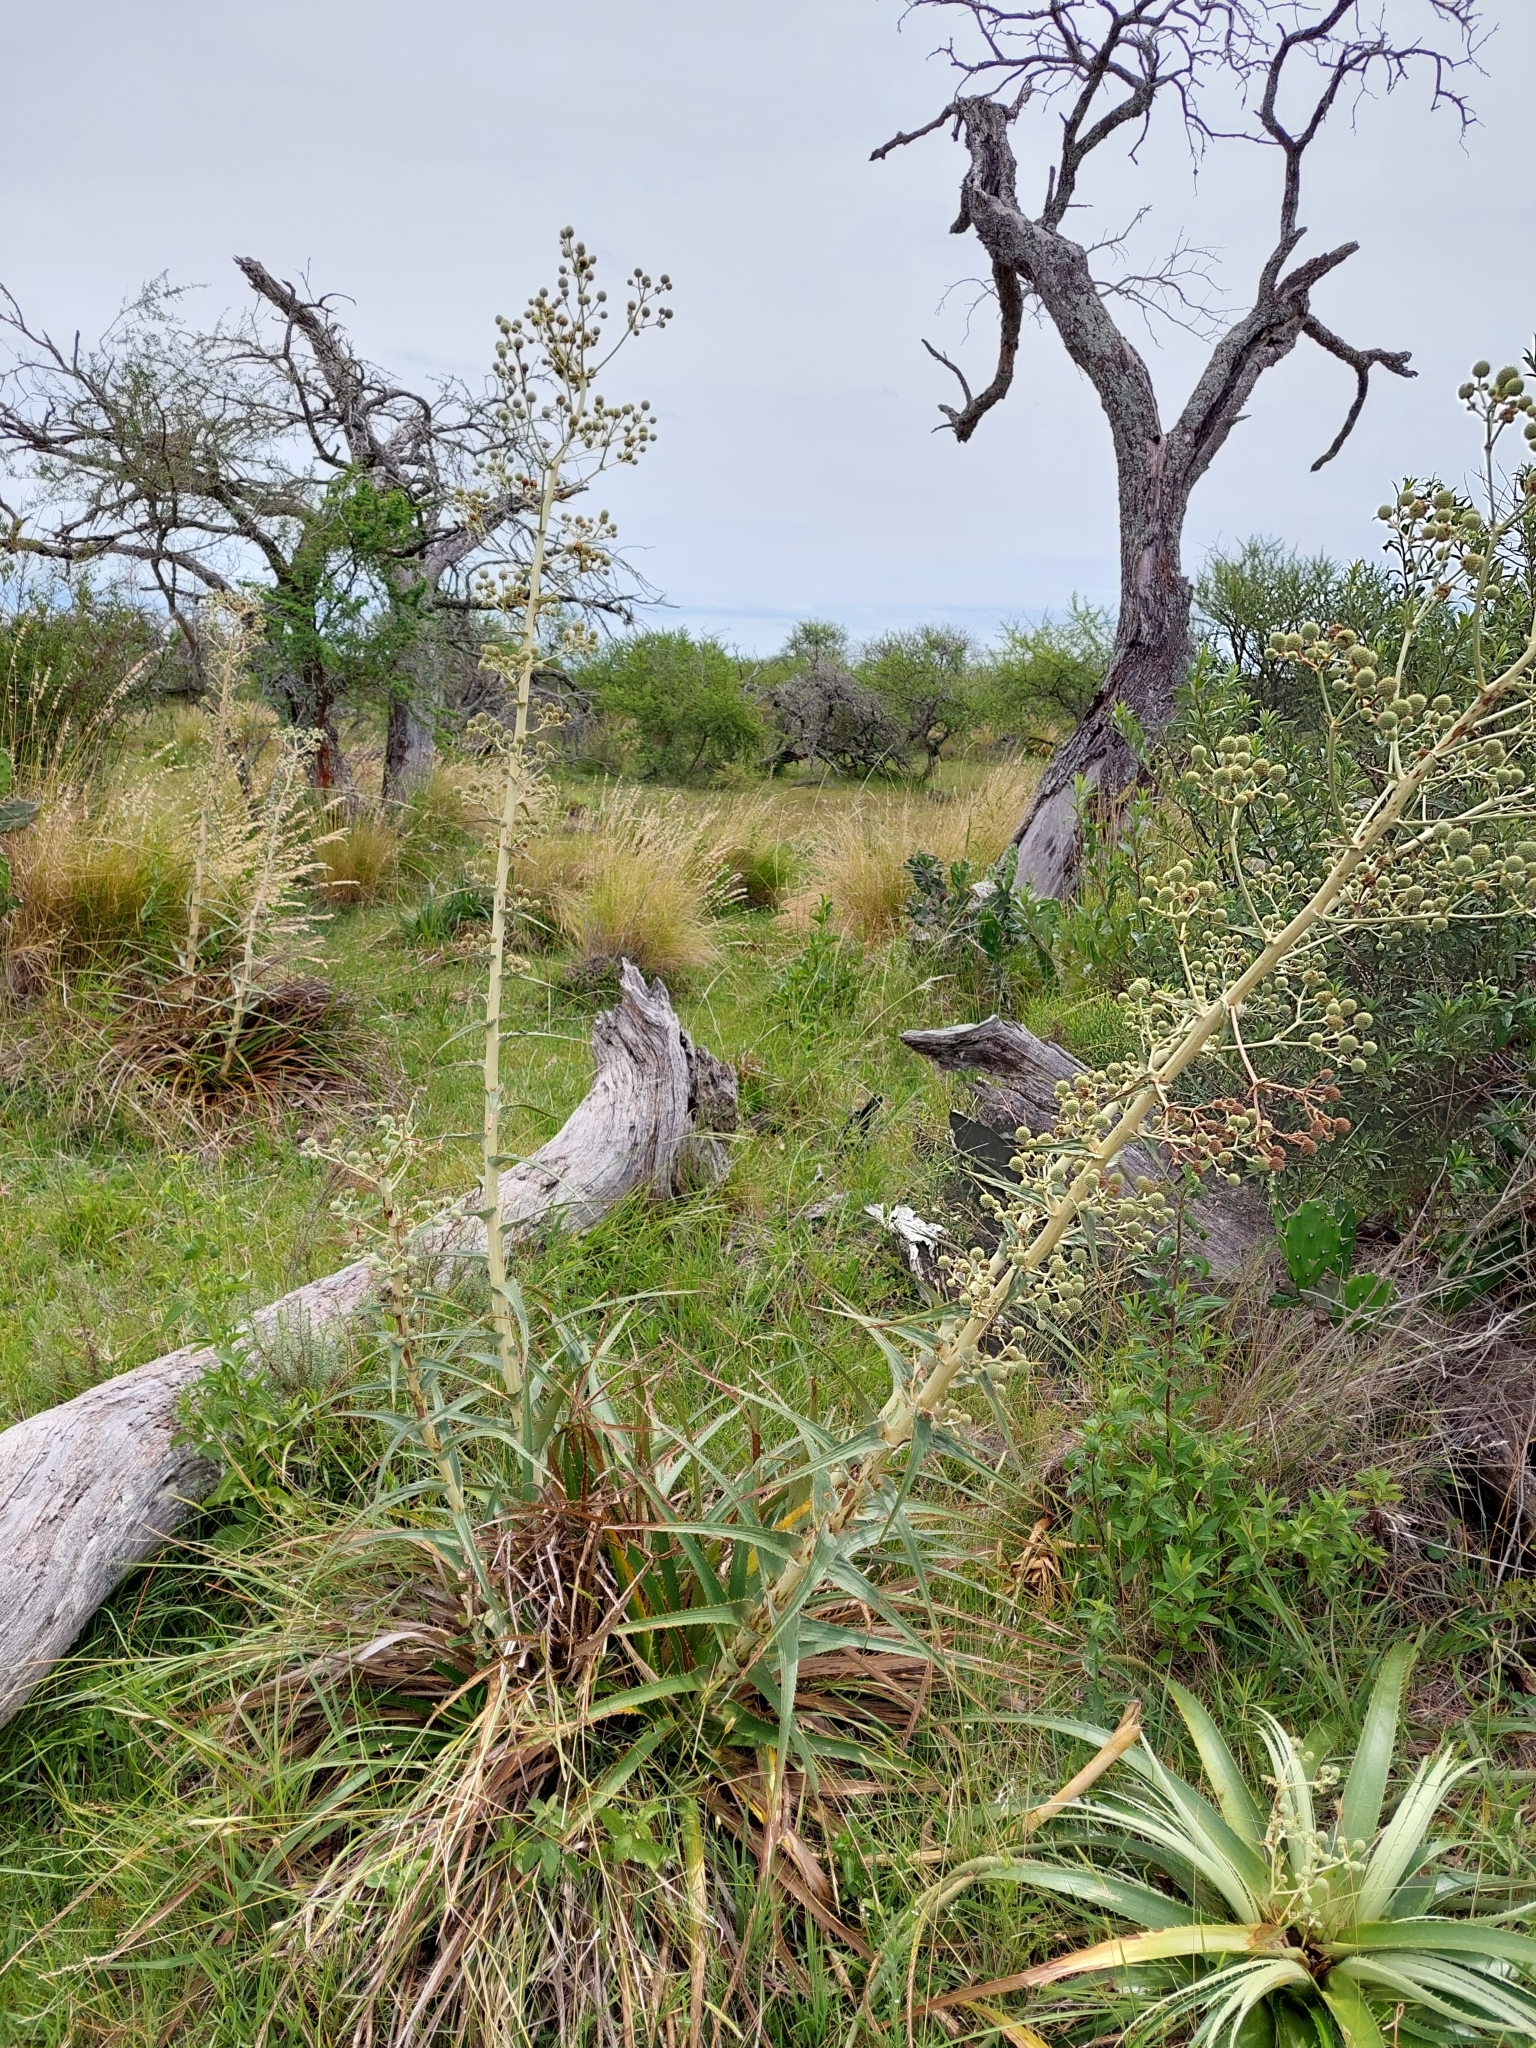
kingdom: Plantae
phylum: Tracheophyta
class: Magnoliopsida
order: Apiales
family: Apiaceae
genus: Eryngium
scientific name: Eryngium horridum
